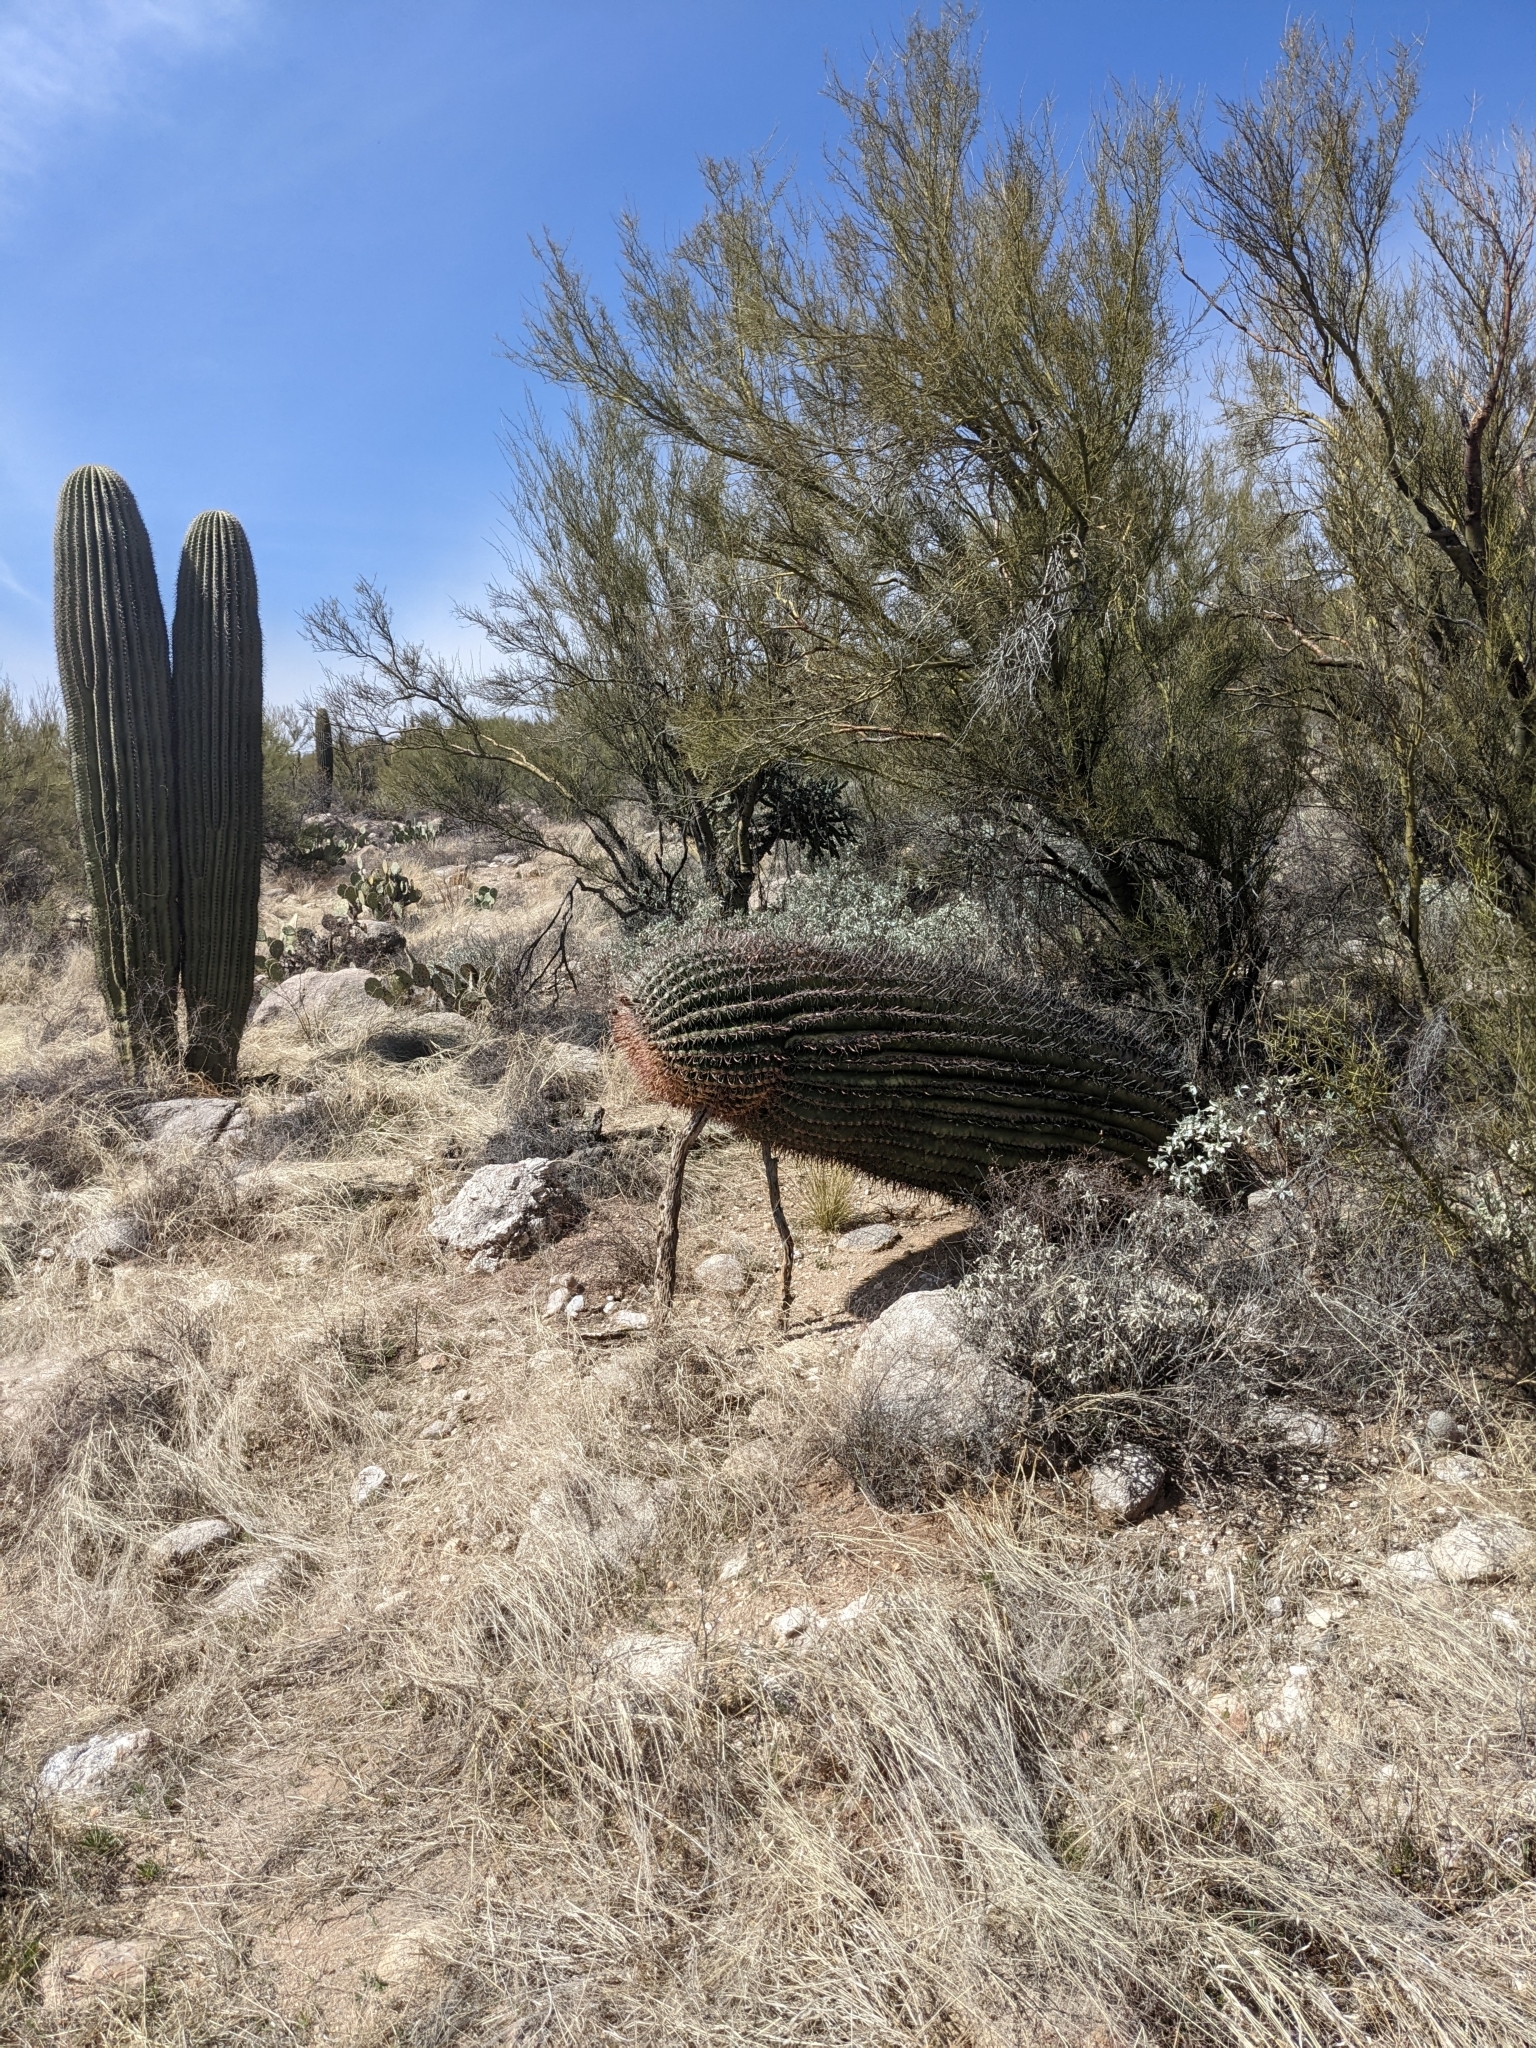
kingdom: Plantae
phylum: Tracheophyta
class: Liliopsida
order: Asparagales
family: Asparagaceae
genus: Dipterostemon
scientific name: Dipterostemon capitatus
